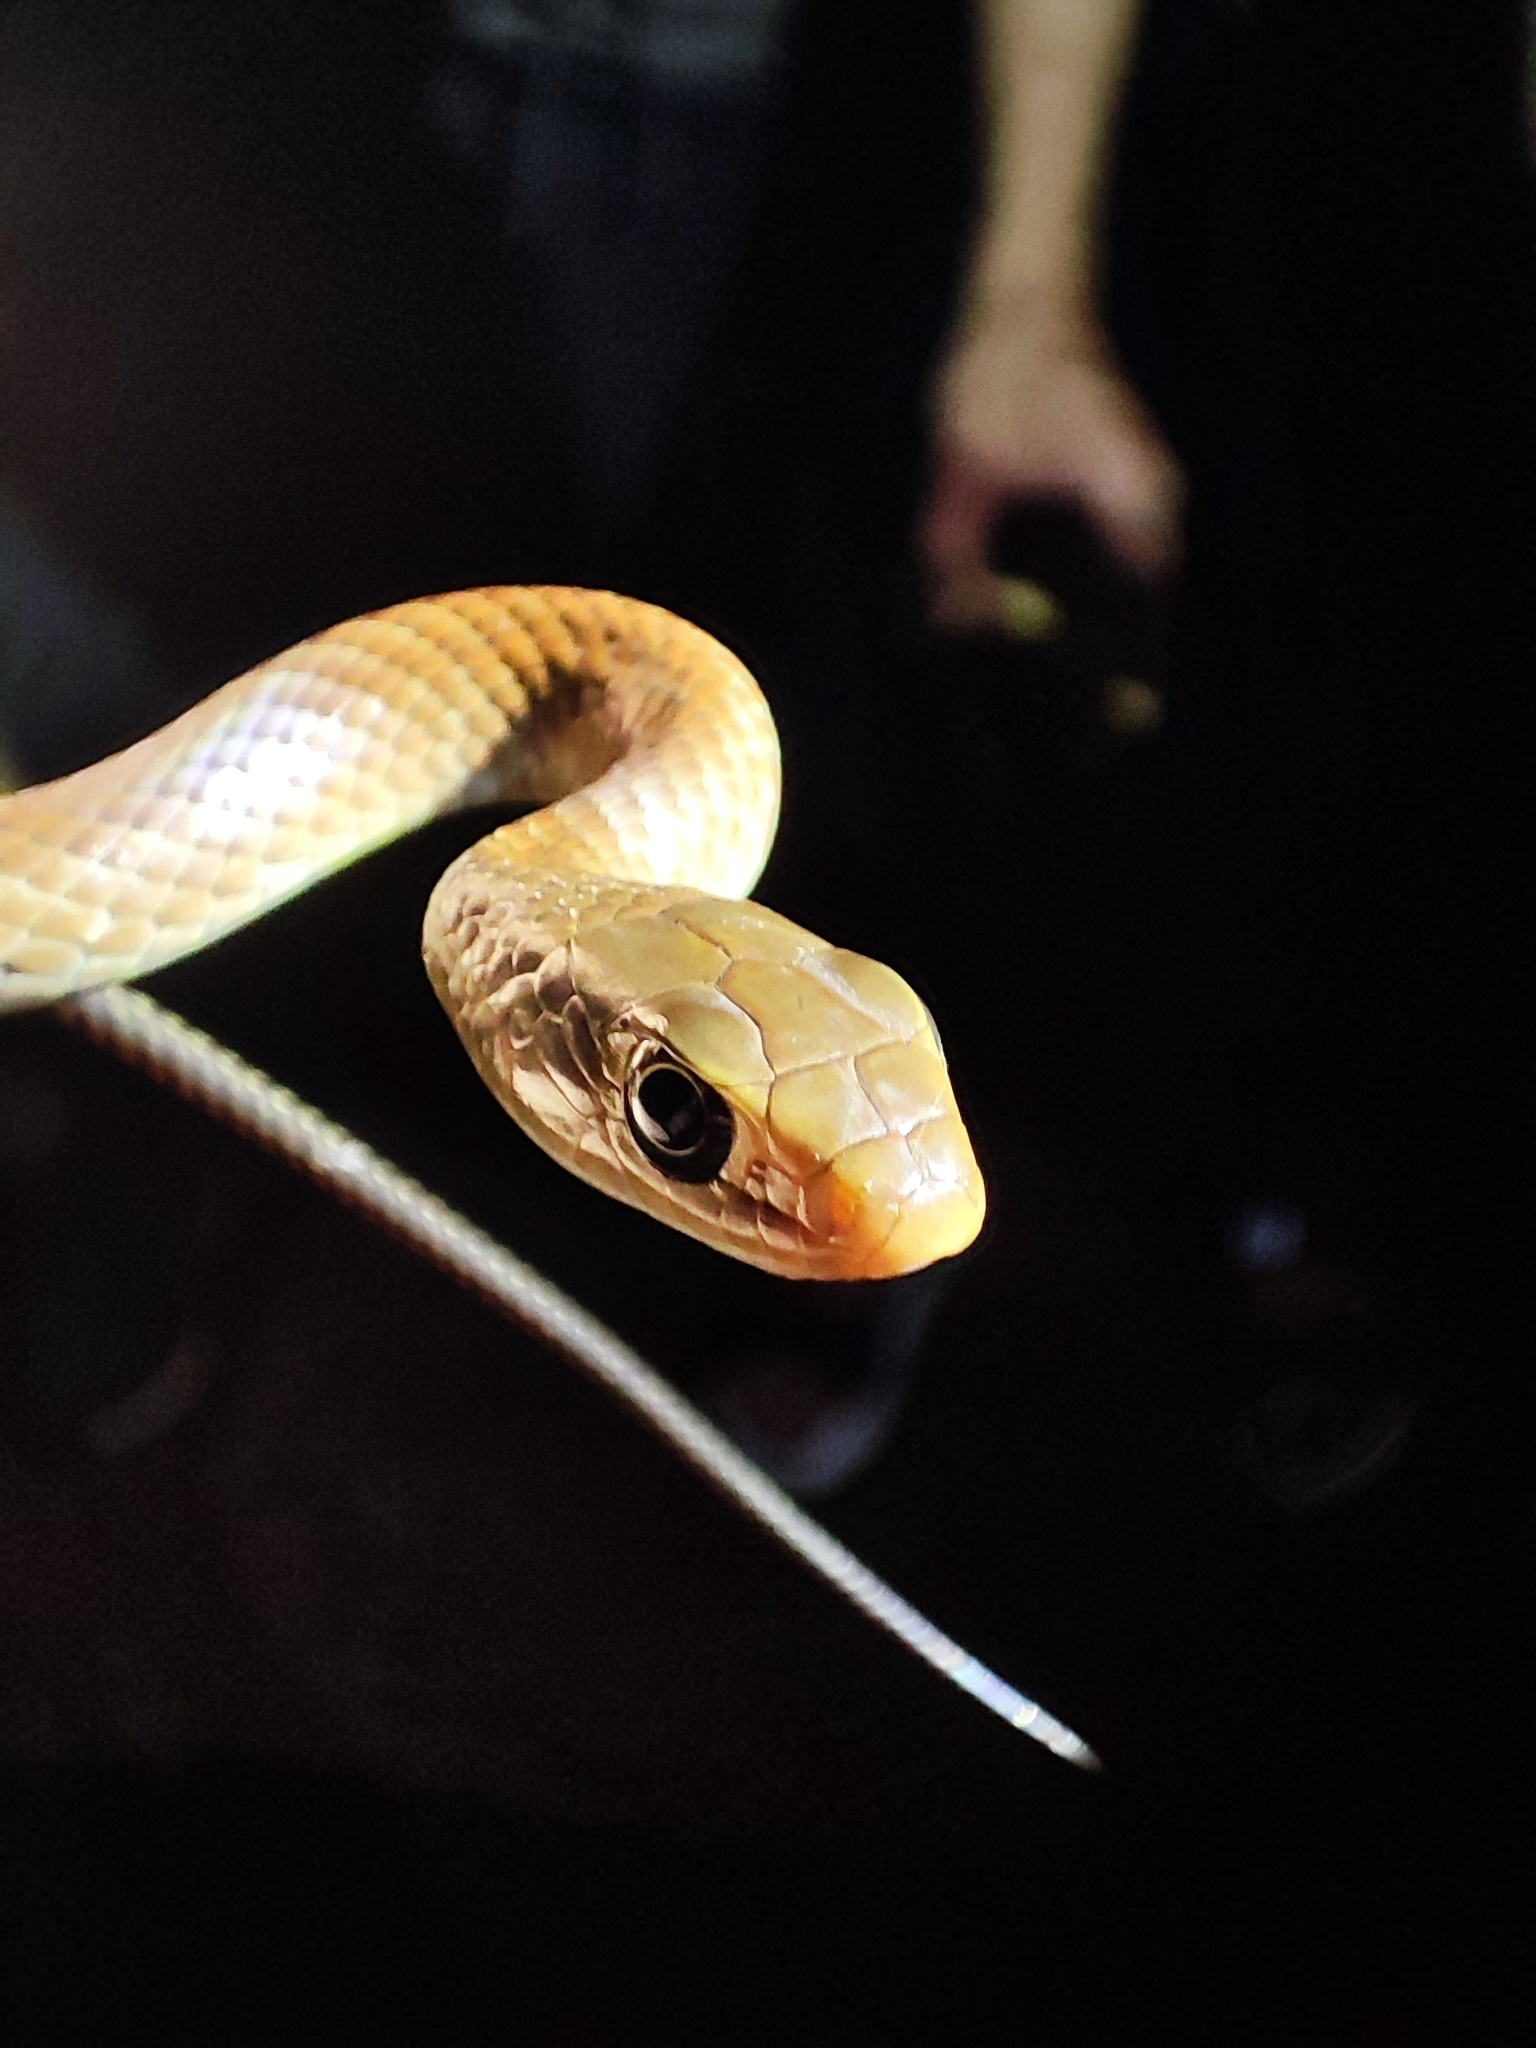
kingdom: Animalia
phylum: Chordata
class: Squamata
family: Colubridae
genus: Ptyas
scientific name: Ptyas korros
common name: Indo-chinese rat snake
